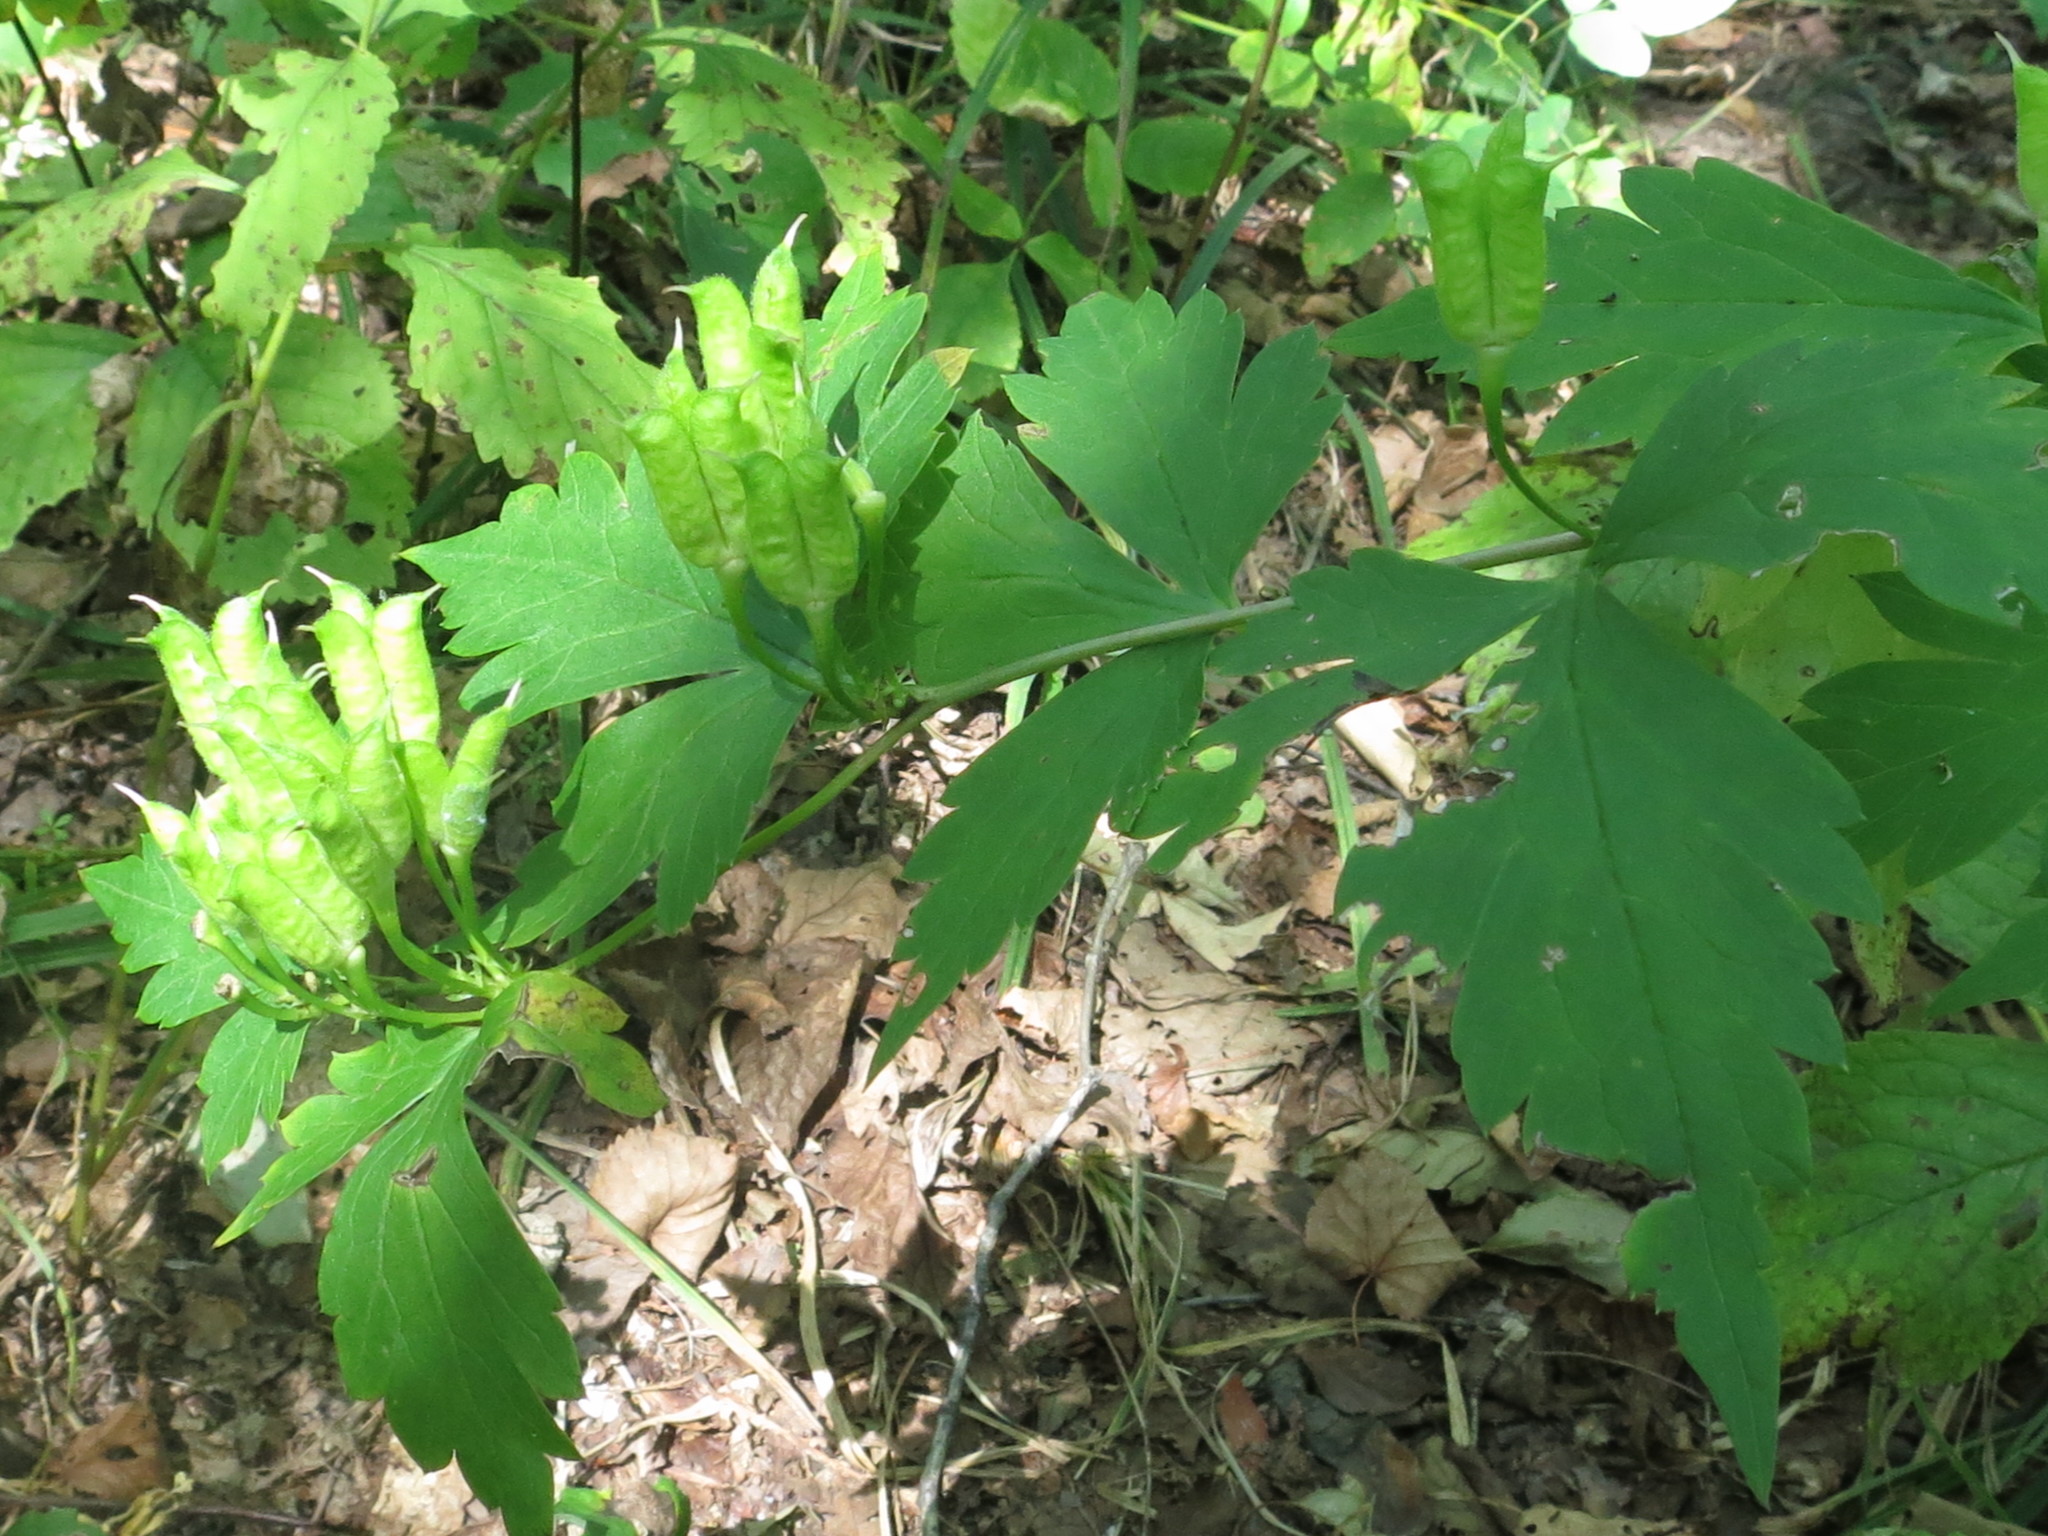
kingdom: Plantae
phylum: Tracheophyta
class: Magnoliopsida
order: Ranunculales
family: Ranunculaceae
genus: Aconitum
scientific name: Aconitum sczukinii
